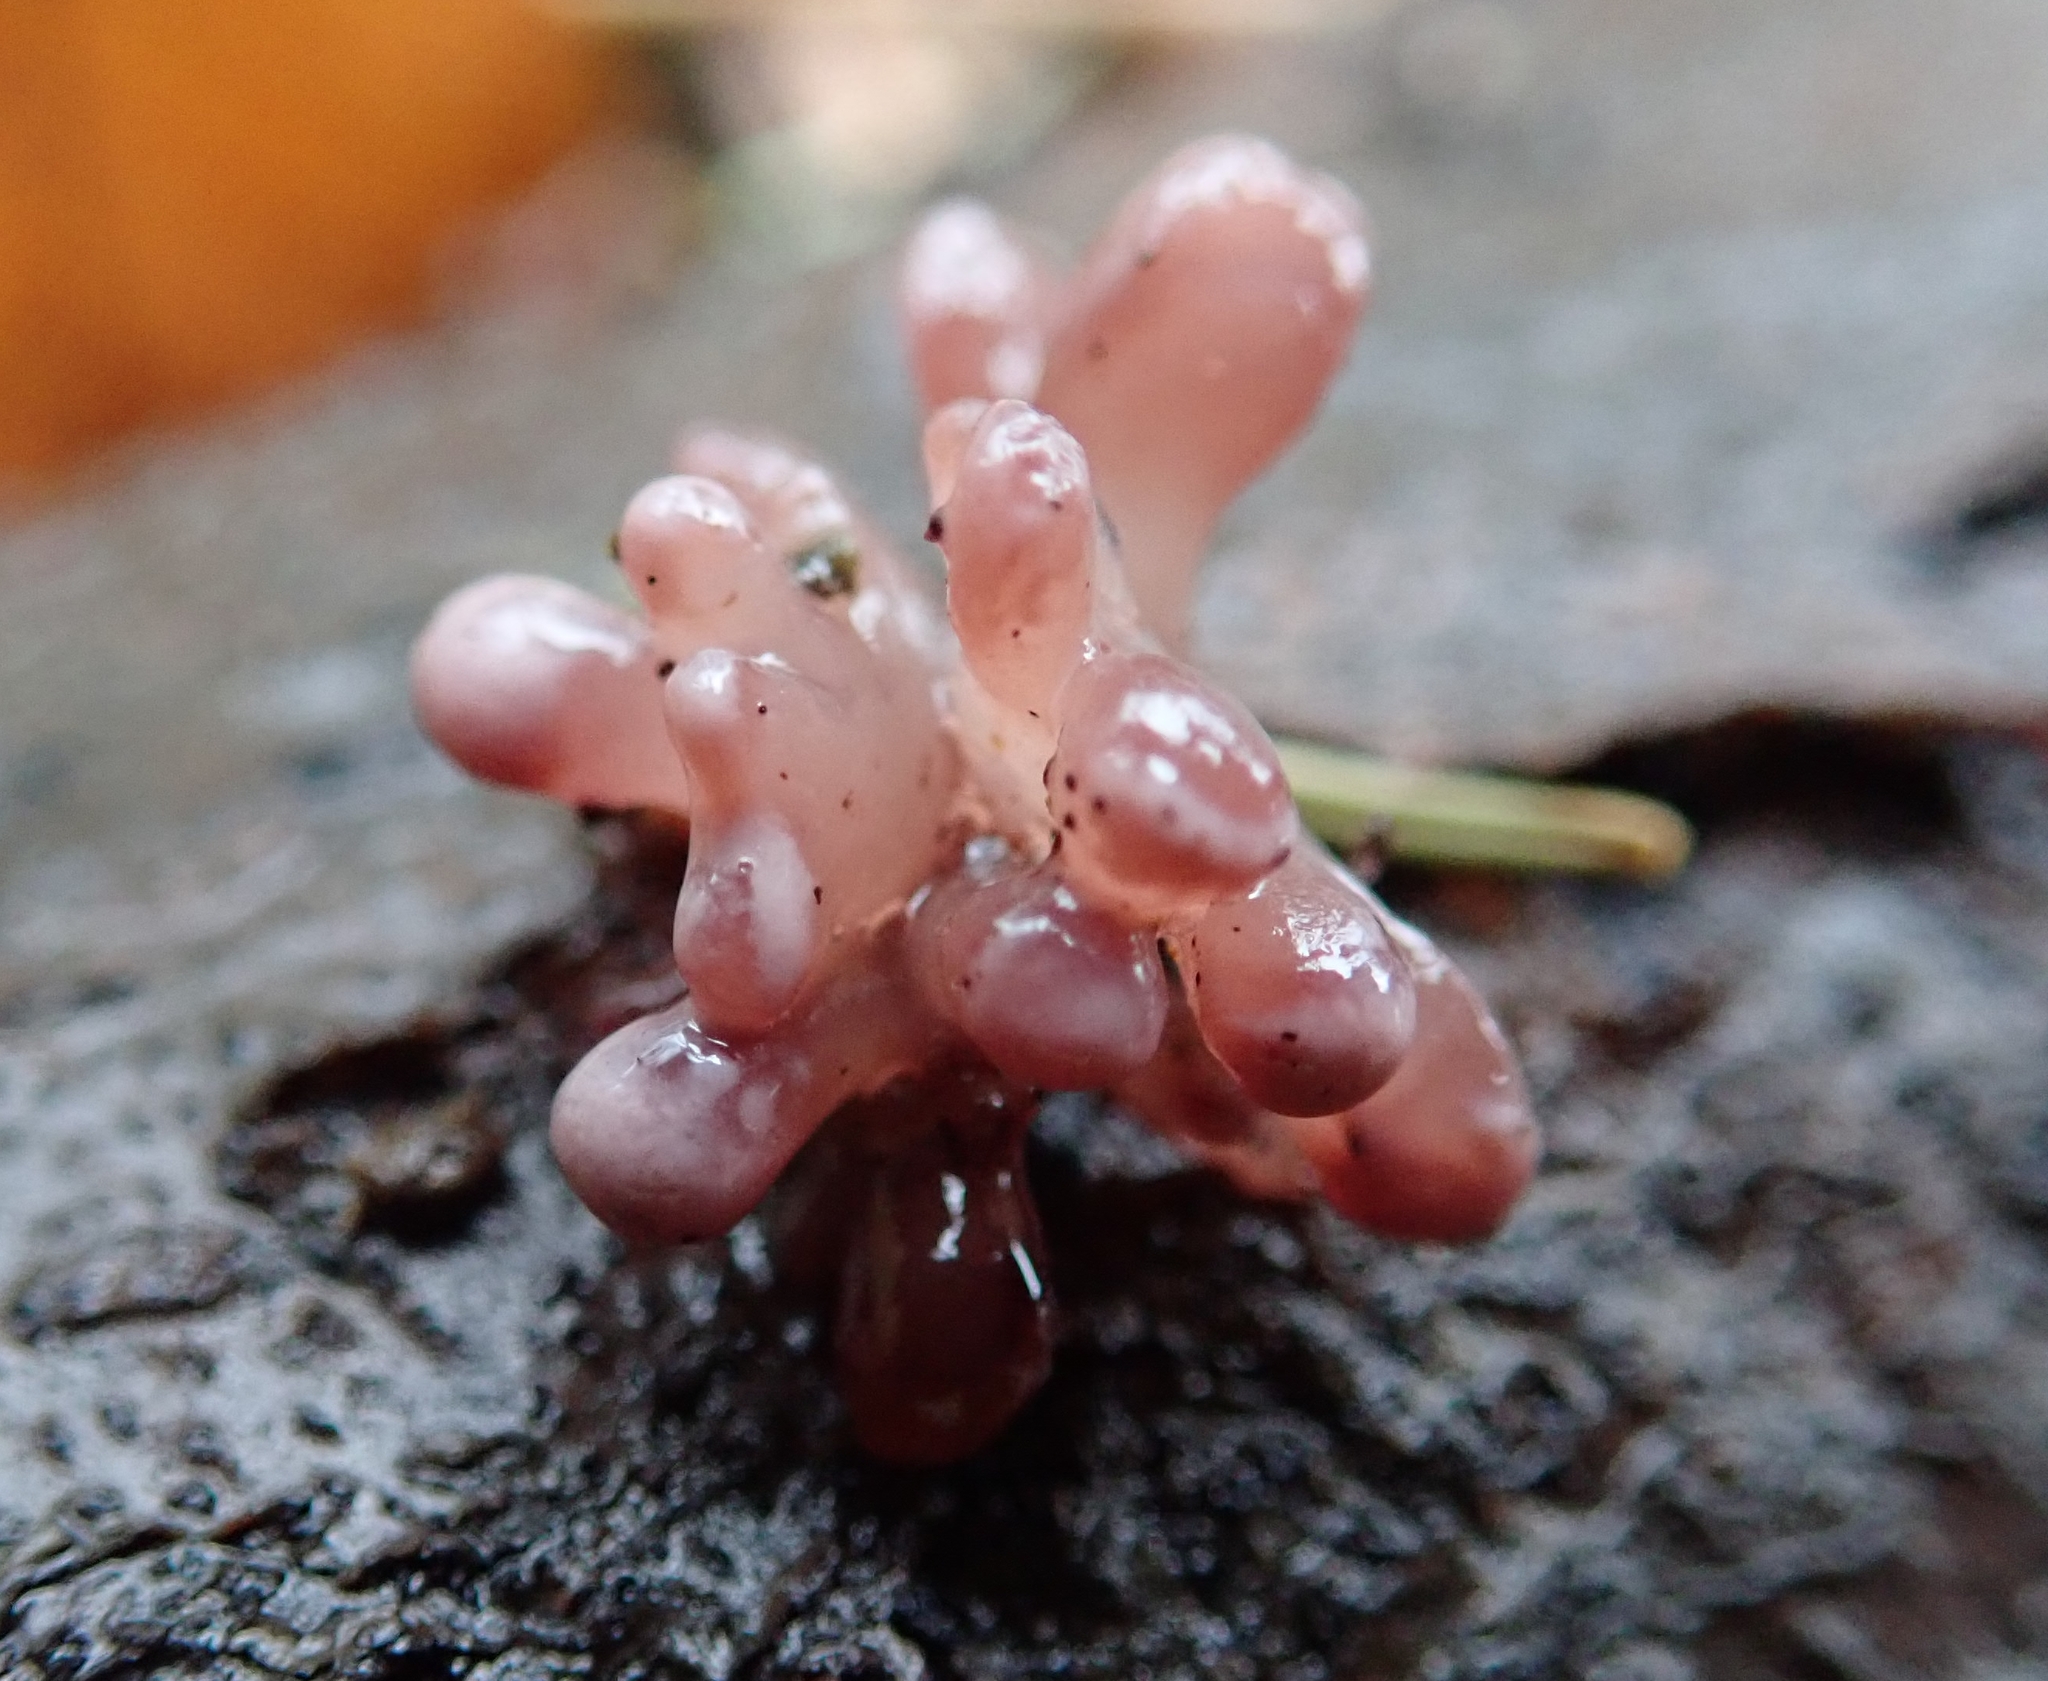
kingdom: Fungi
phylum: Ascomycota
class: Leotiomycetes
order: Helotiales
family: Gelatinodiscaceae
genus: Ascocoryne
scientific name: Ascocoryne sarcoides
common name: Purple jellydisc
